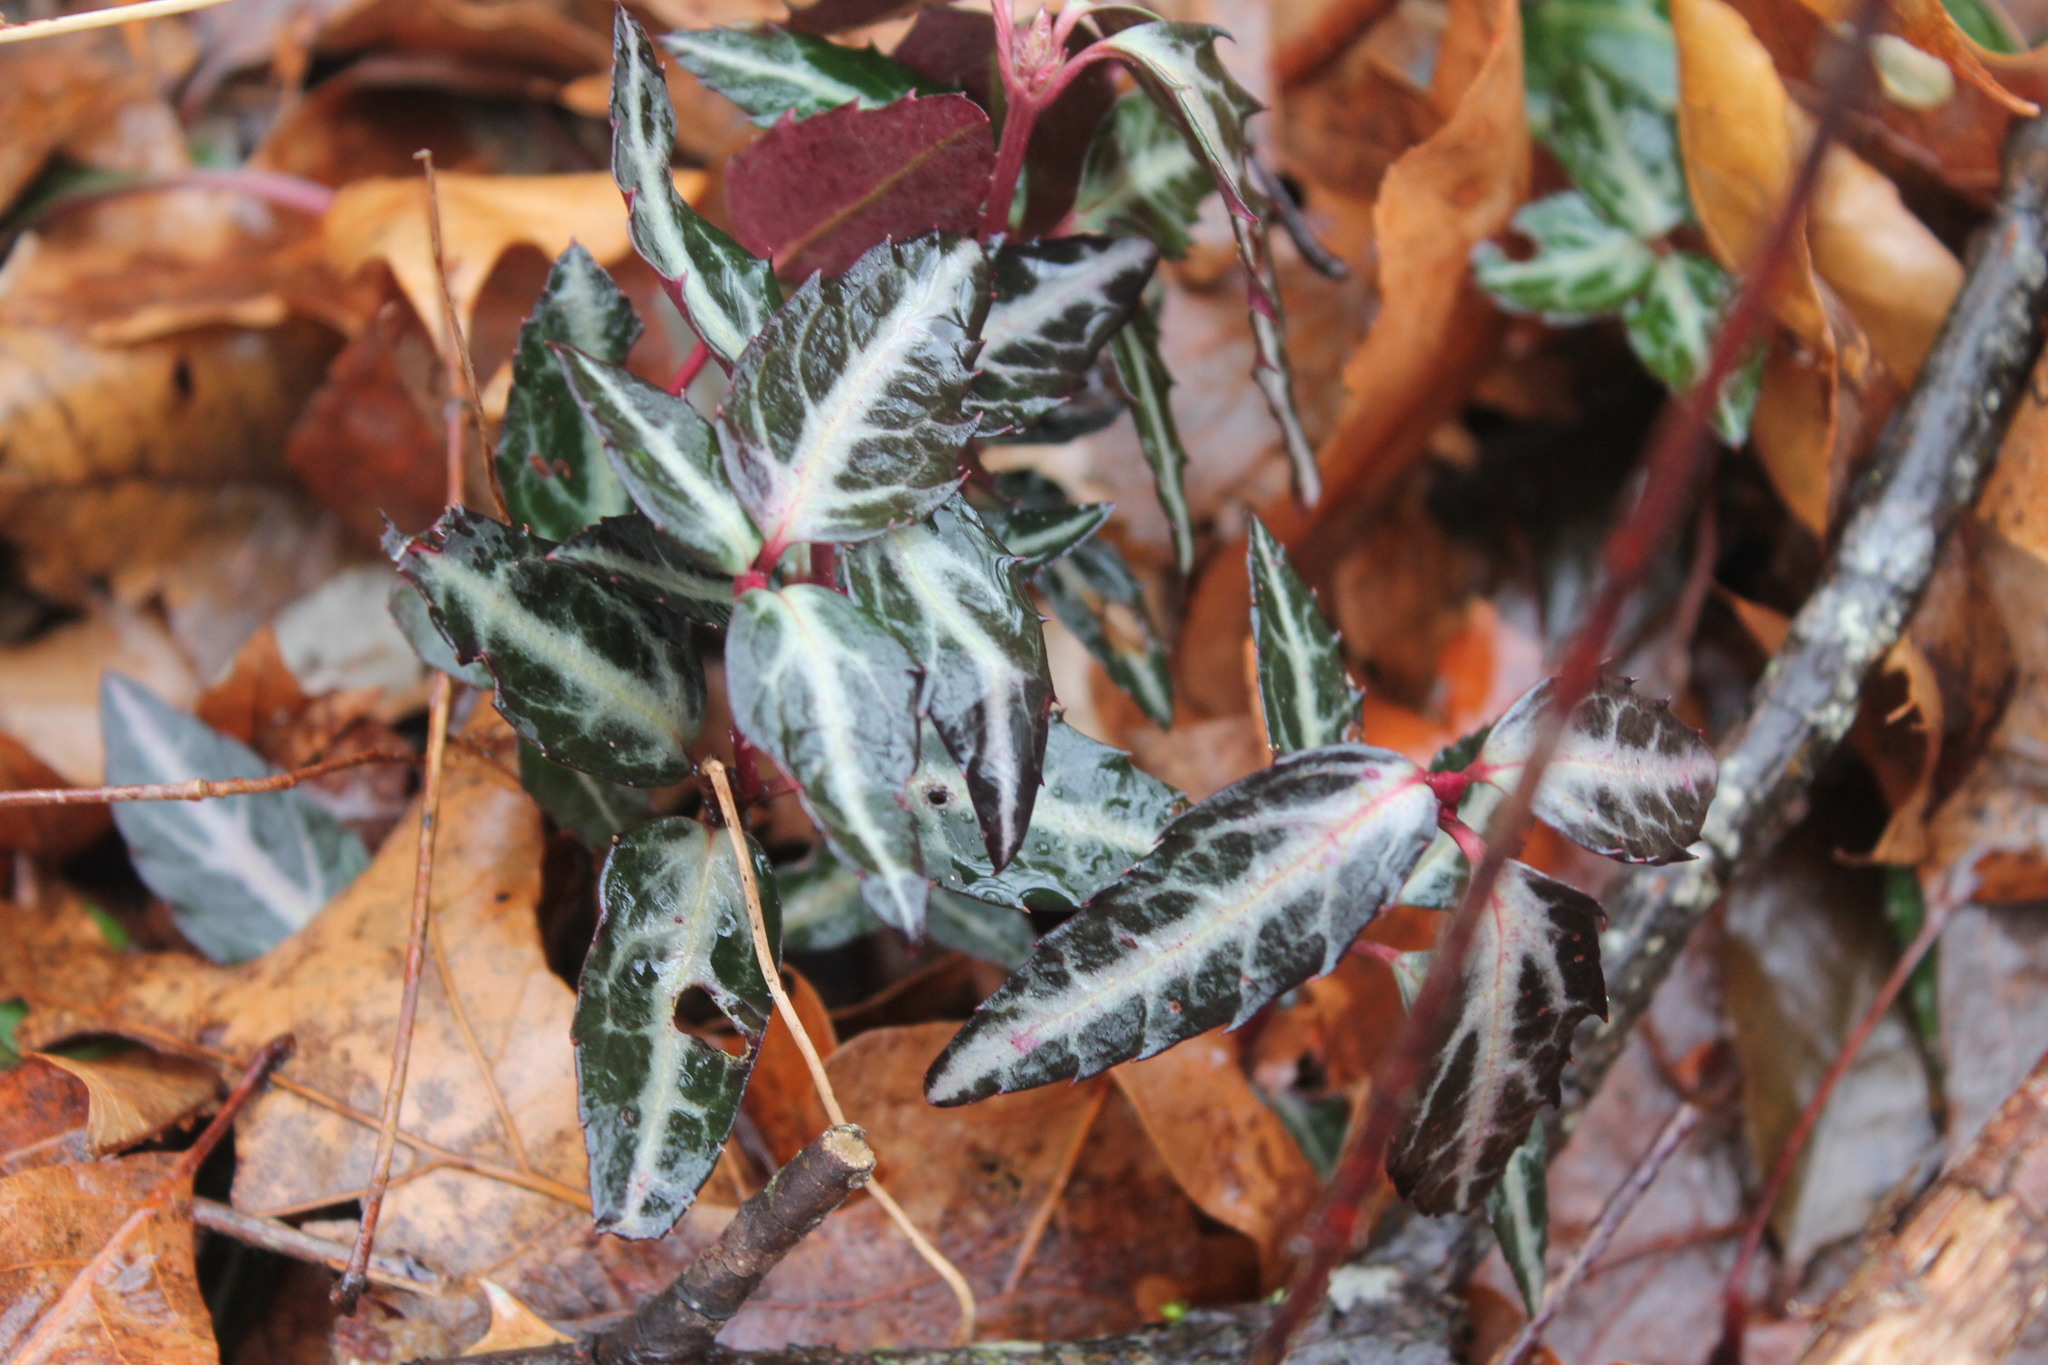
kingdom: Plantae
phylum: Tracheophyta
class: Magnoliopsida
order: Ericales
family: Ericaceae
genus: Chimaphila
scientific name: Chimaphila maculata
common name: Spotted pipsissewa
